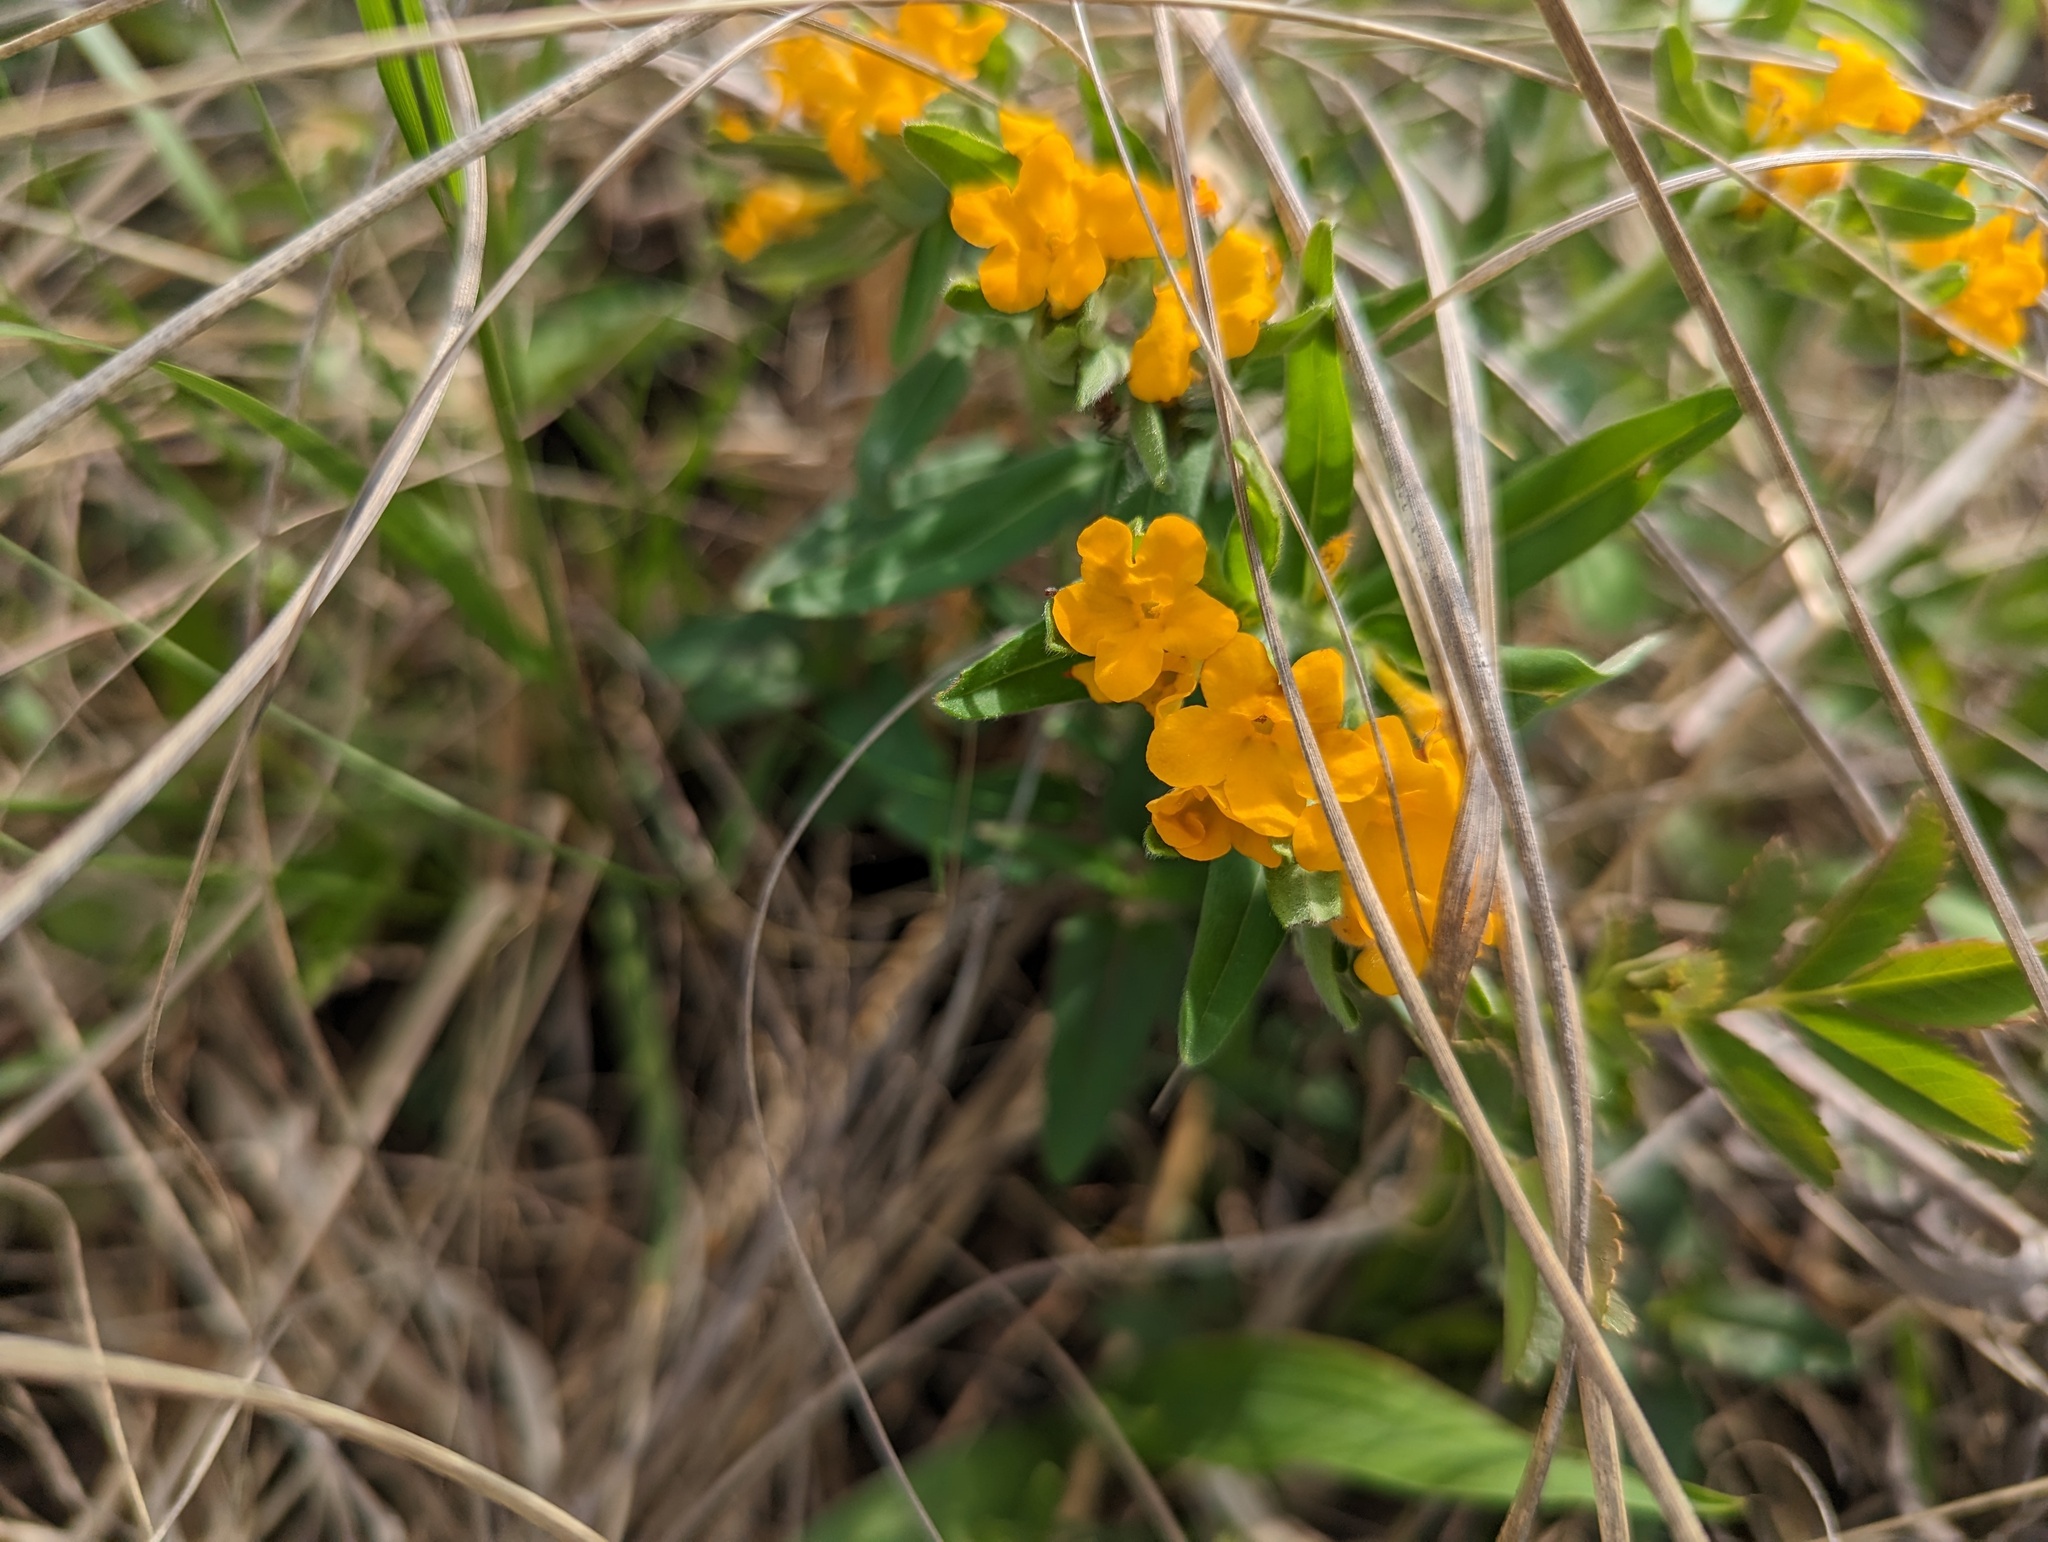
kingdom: Plantae
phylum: Tracheophyta
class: Magnoliopsida
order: Boraginales
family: Boraginaceae
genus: Lithospermum
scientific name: Lithospermum canescens
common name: Hoary puccoon
